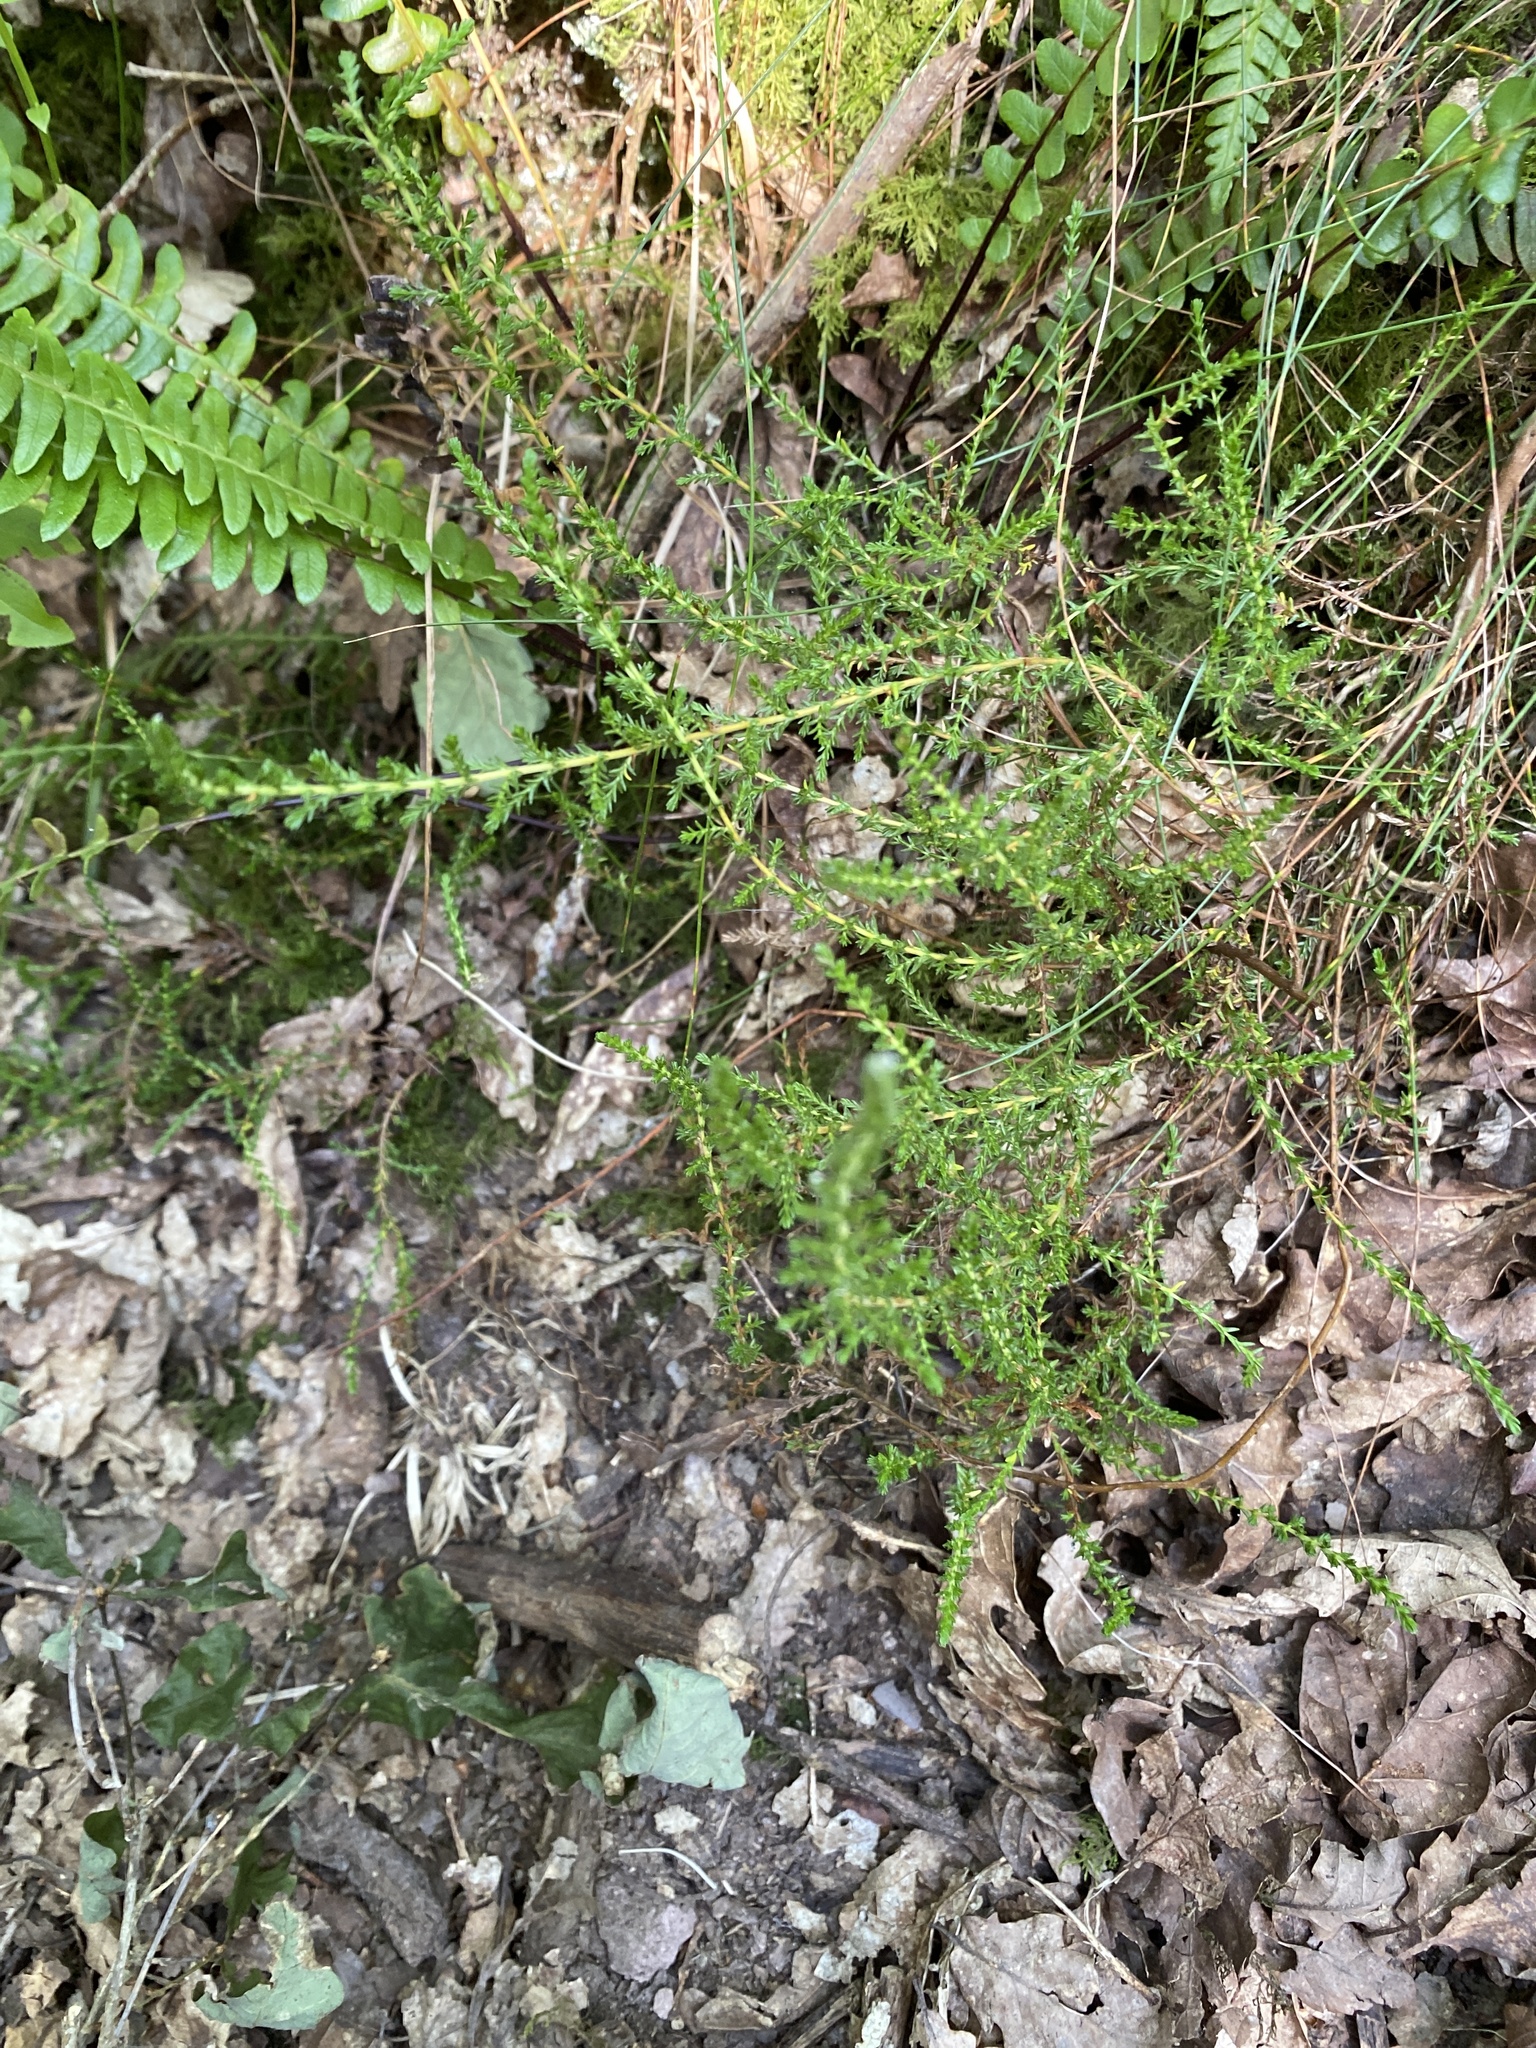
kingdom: Plantae
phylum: Tracheophyta
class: Magnoliopsida
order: Ericales
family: Ericaceae
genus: Calluna
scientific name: Calluna vulgaris
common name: Heather
